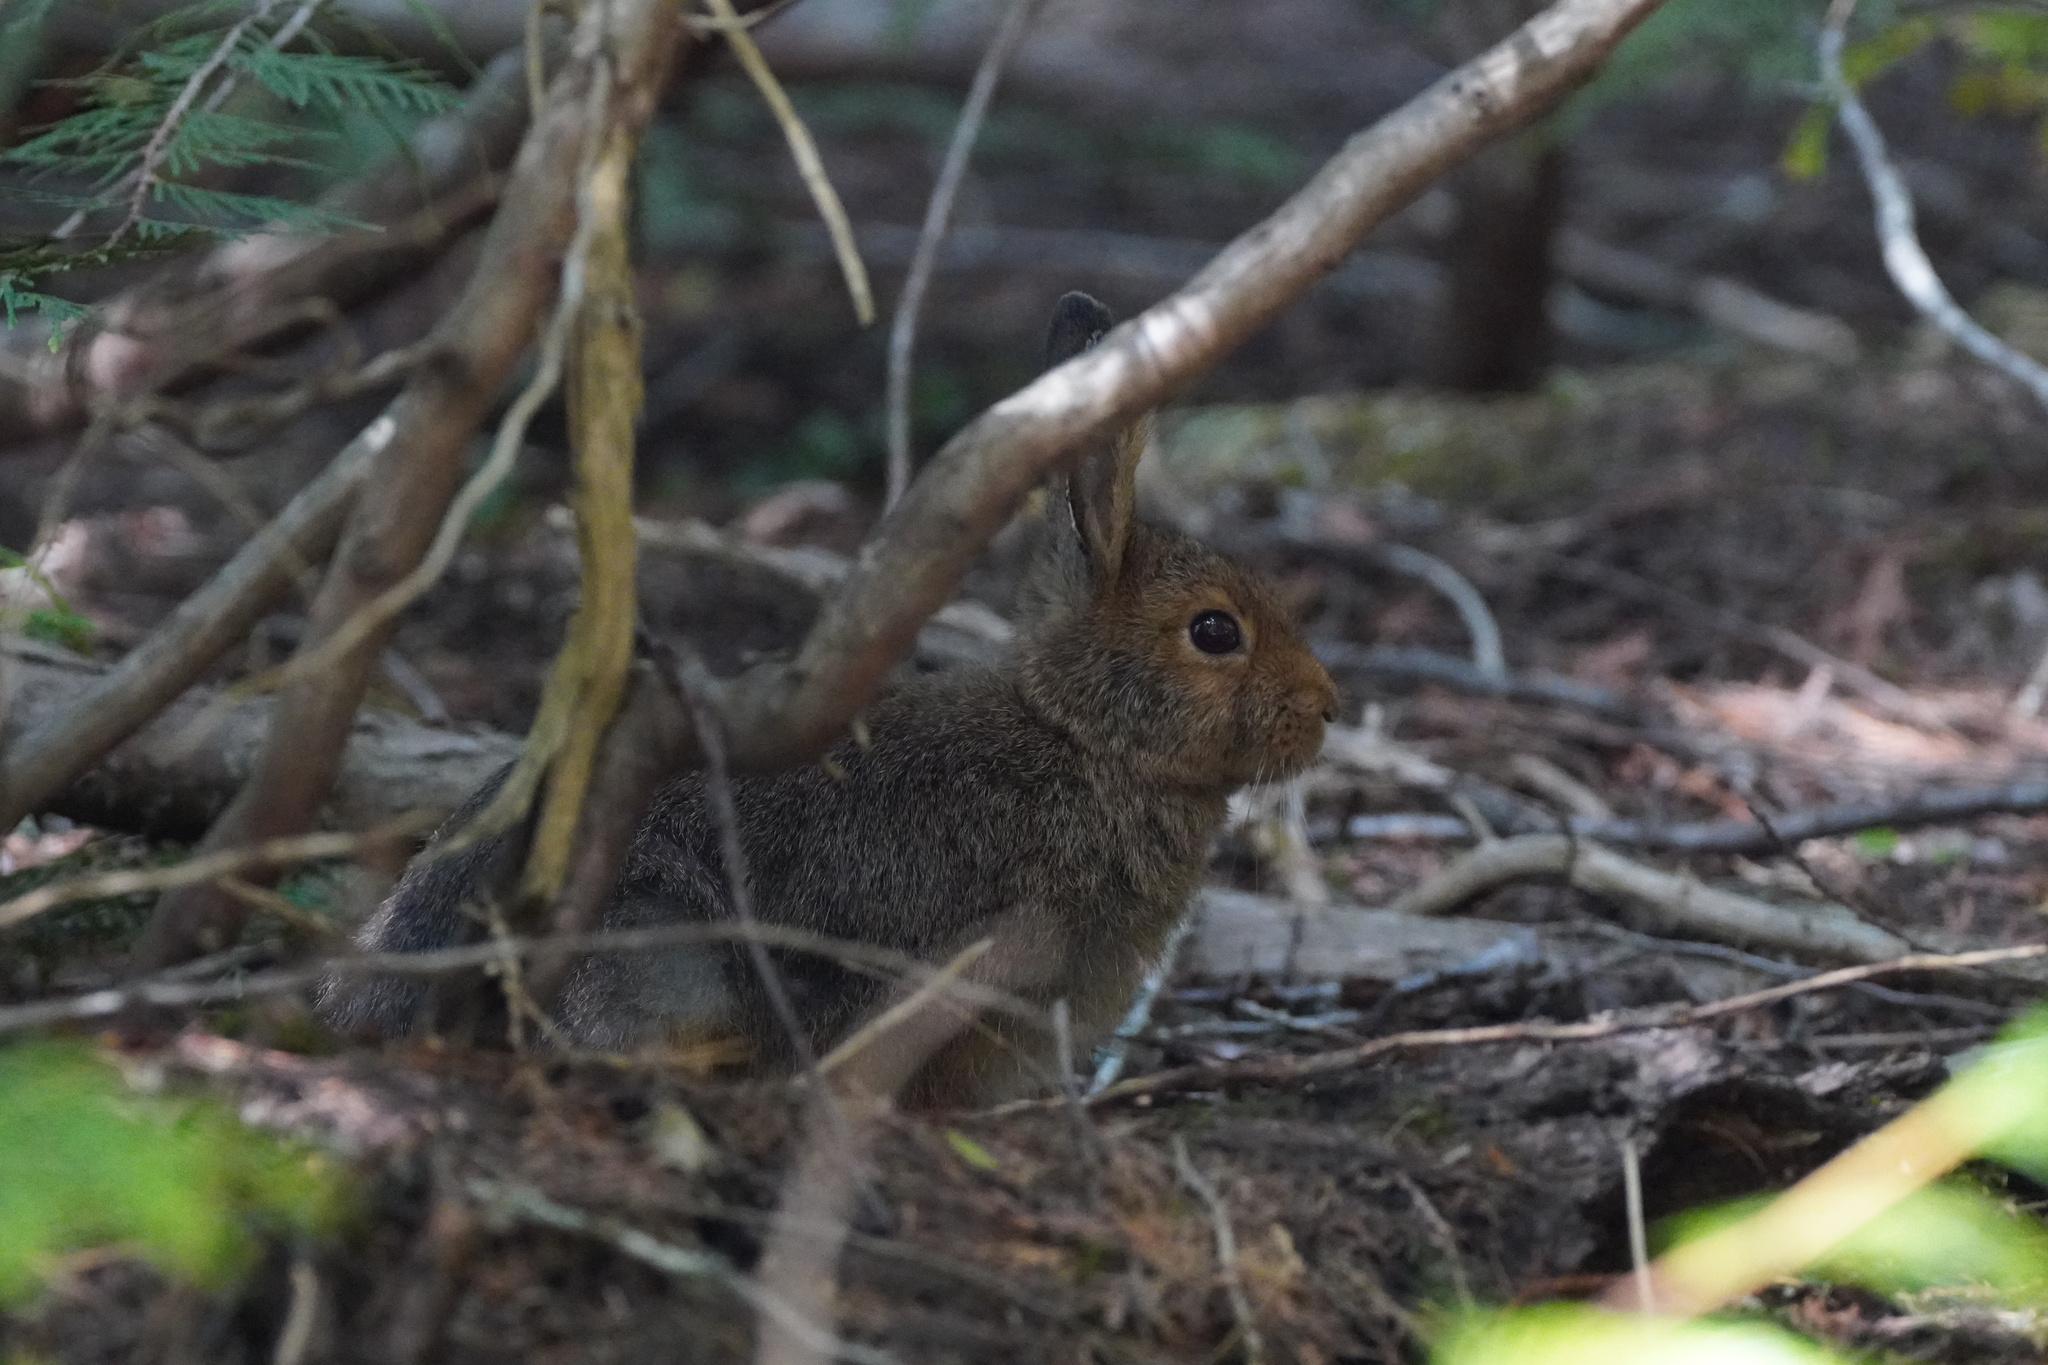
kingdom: Animalia
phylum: Chordata
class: Mammalia
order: Lagomorpha
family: Leporidae
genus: Lepus
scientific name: Lepus americanus
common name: Snowshoe hare
